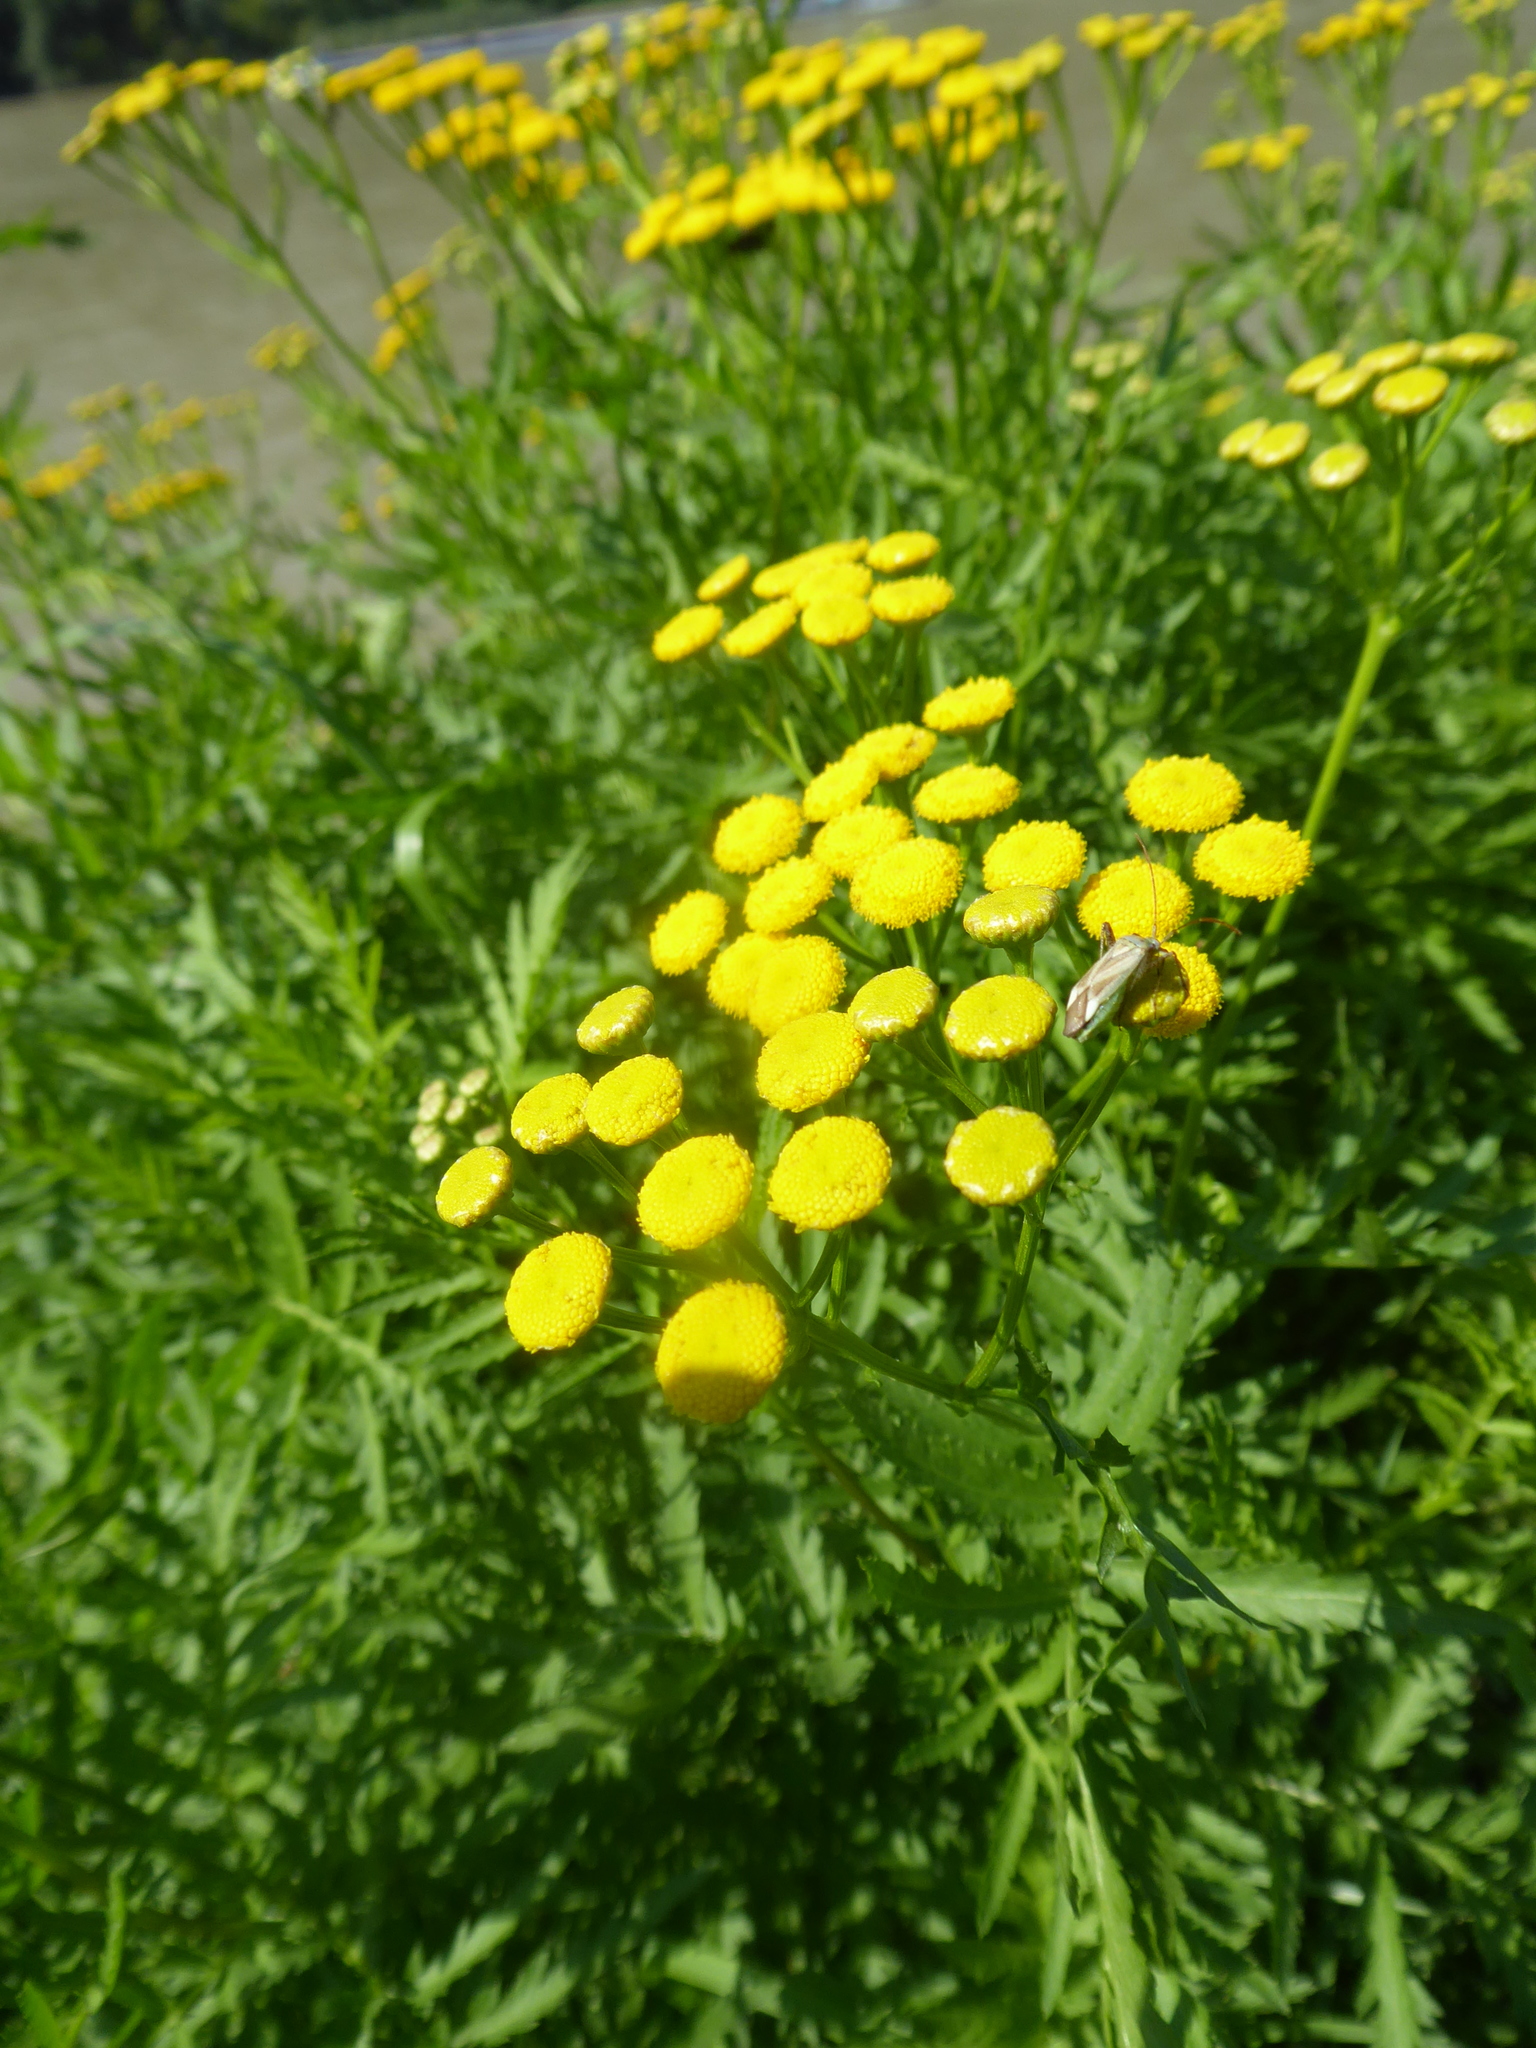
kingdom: Plantae
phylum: Tracheophyta
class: Magnoliopsida
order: Asterales
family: Asteraceae
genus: Tanacetum
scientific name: Tanacetum vulgare
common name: Common tansy
